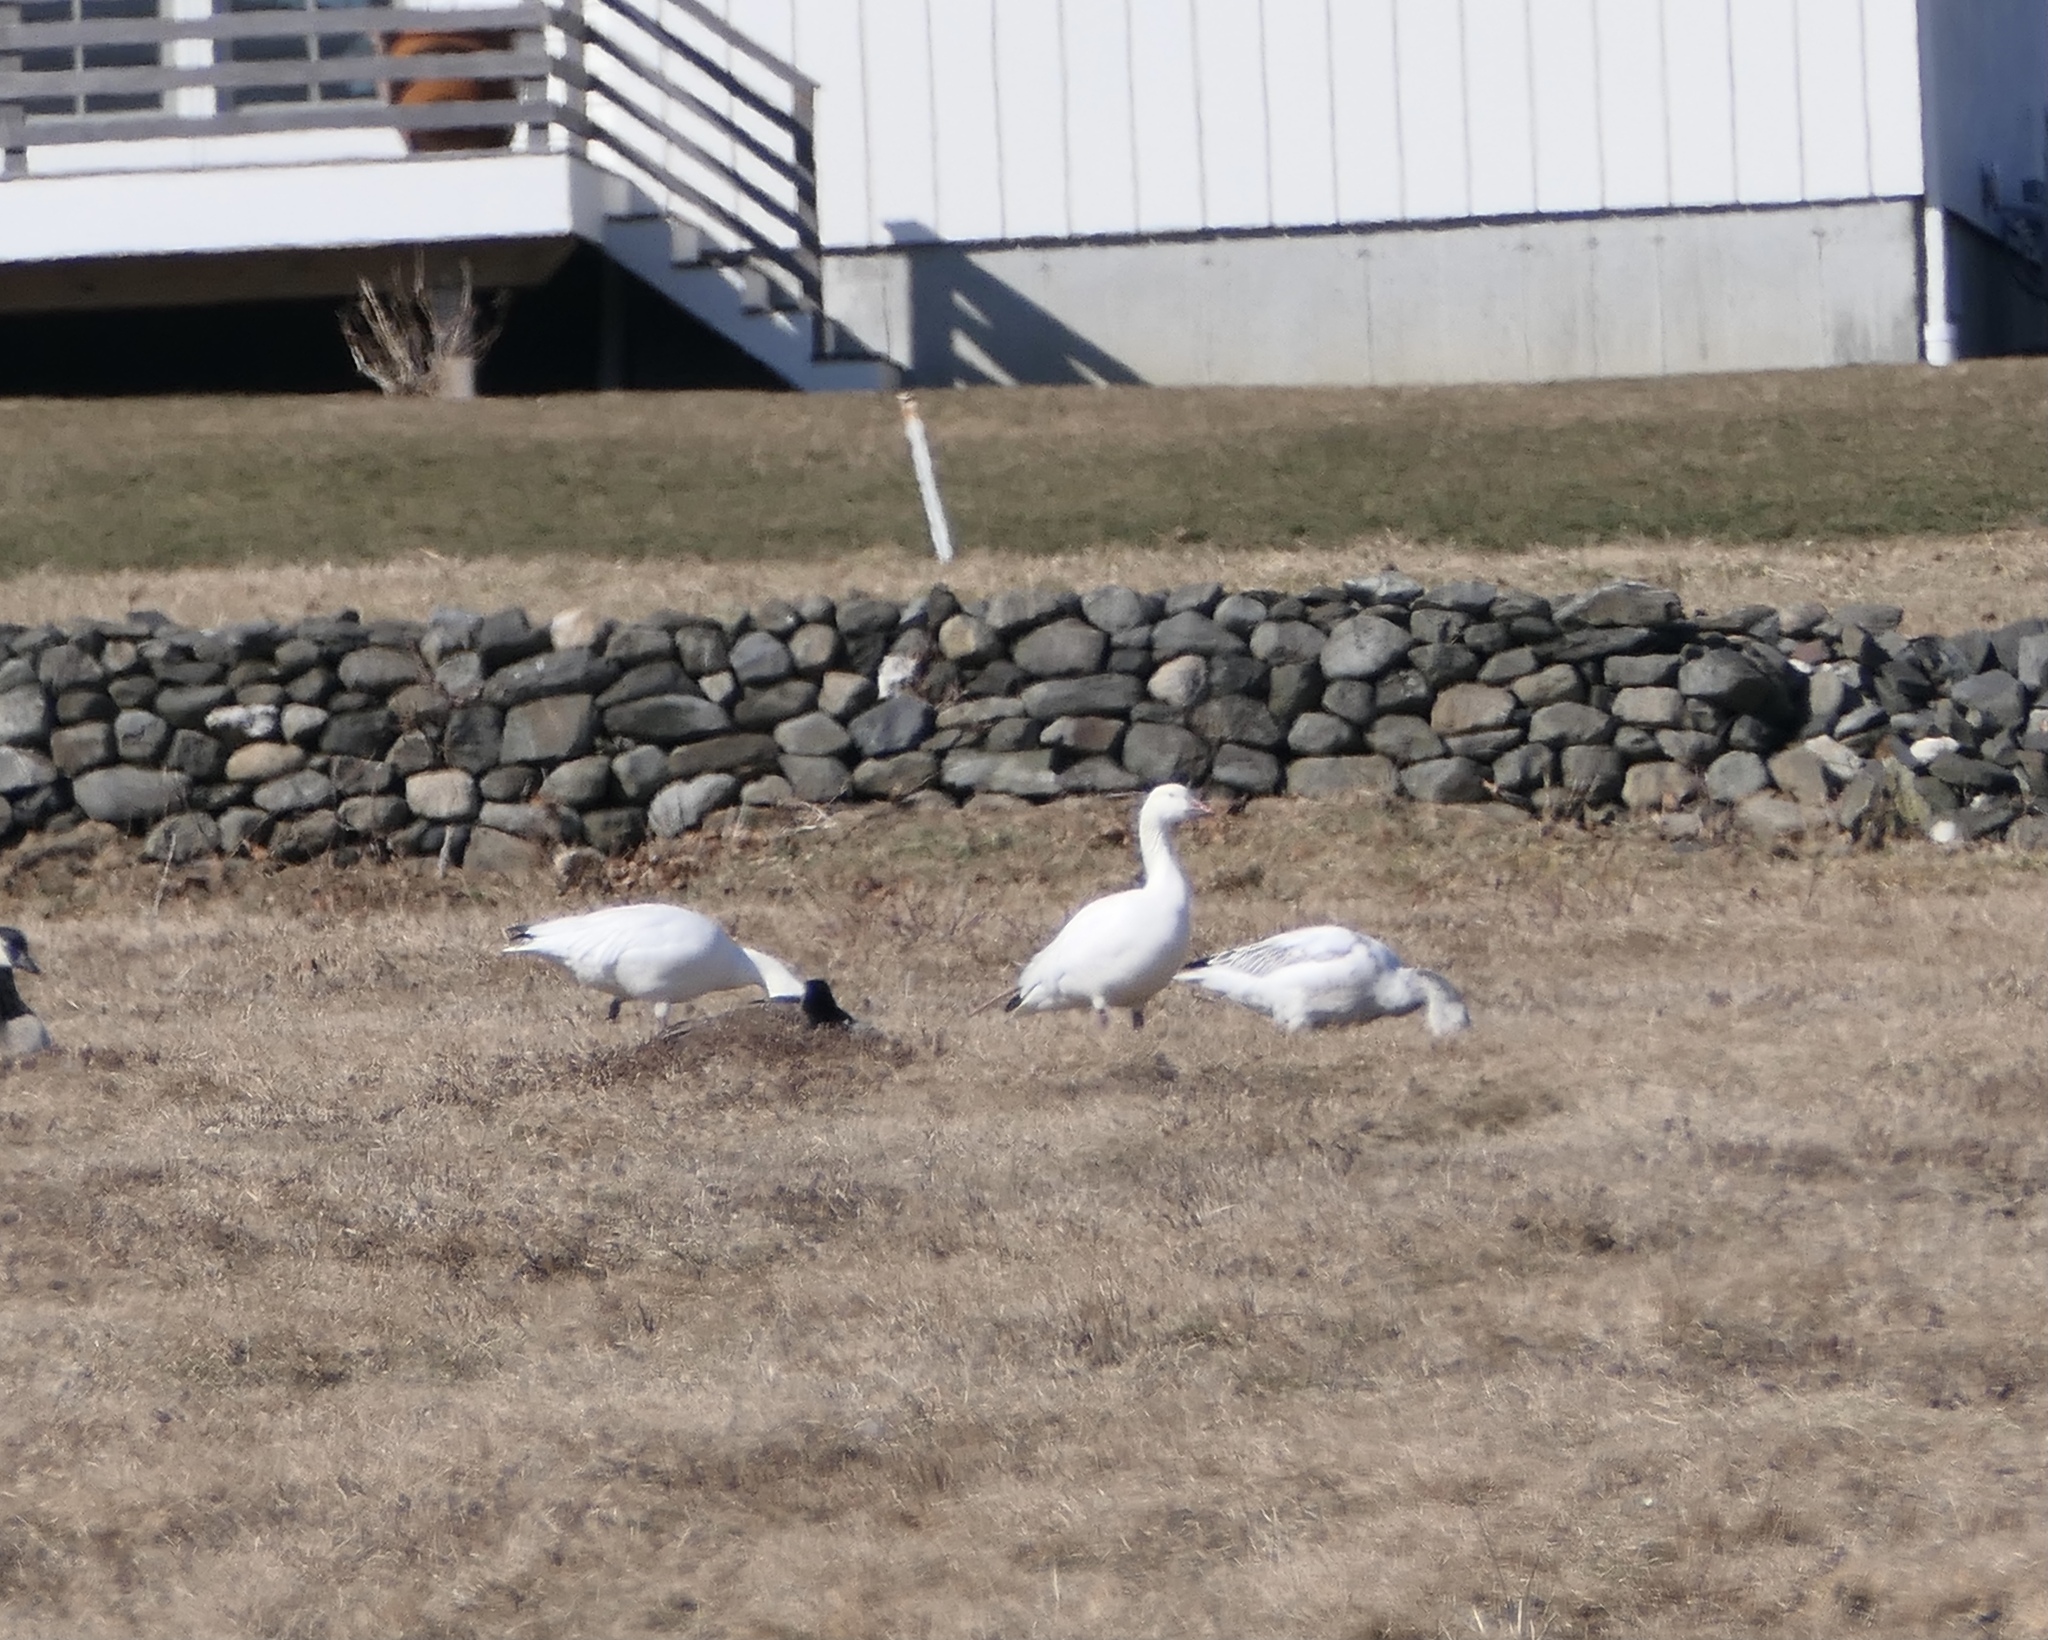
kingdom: Animalia
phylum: Chordata
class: Aves
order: Anseriformes
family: Anatidae
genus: Anser
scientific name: Anser caerulescens
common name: Snow goose
